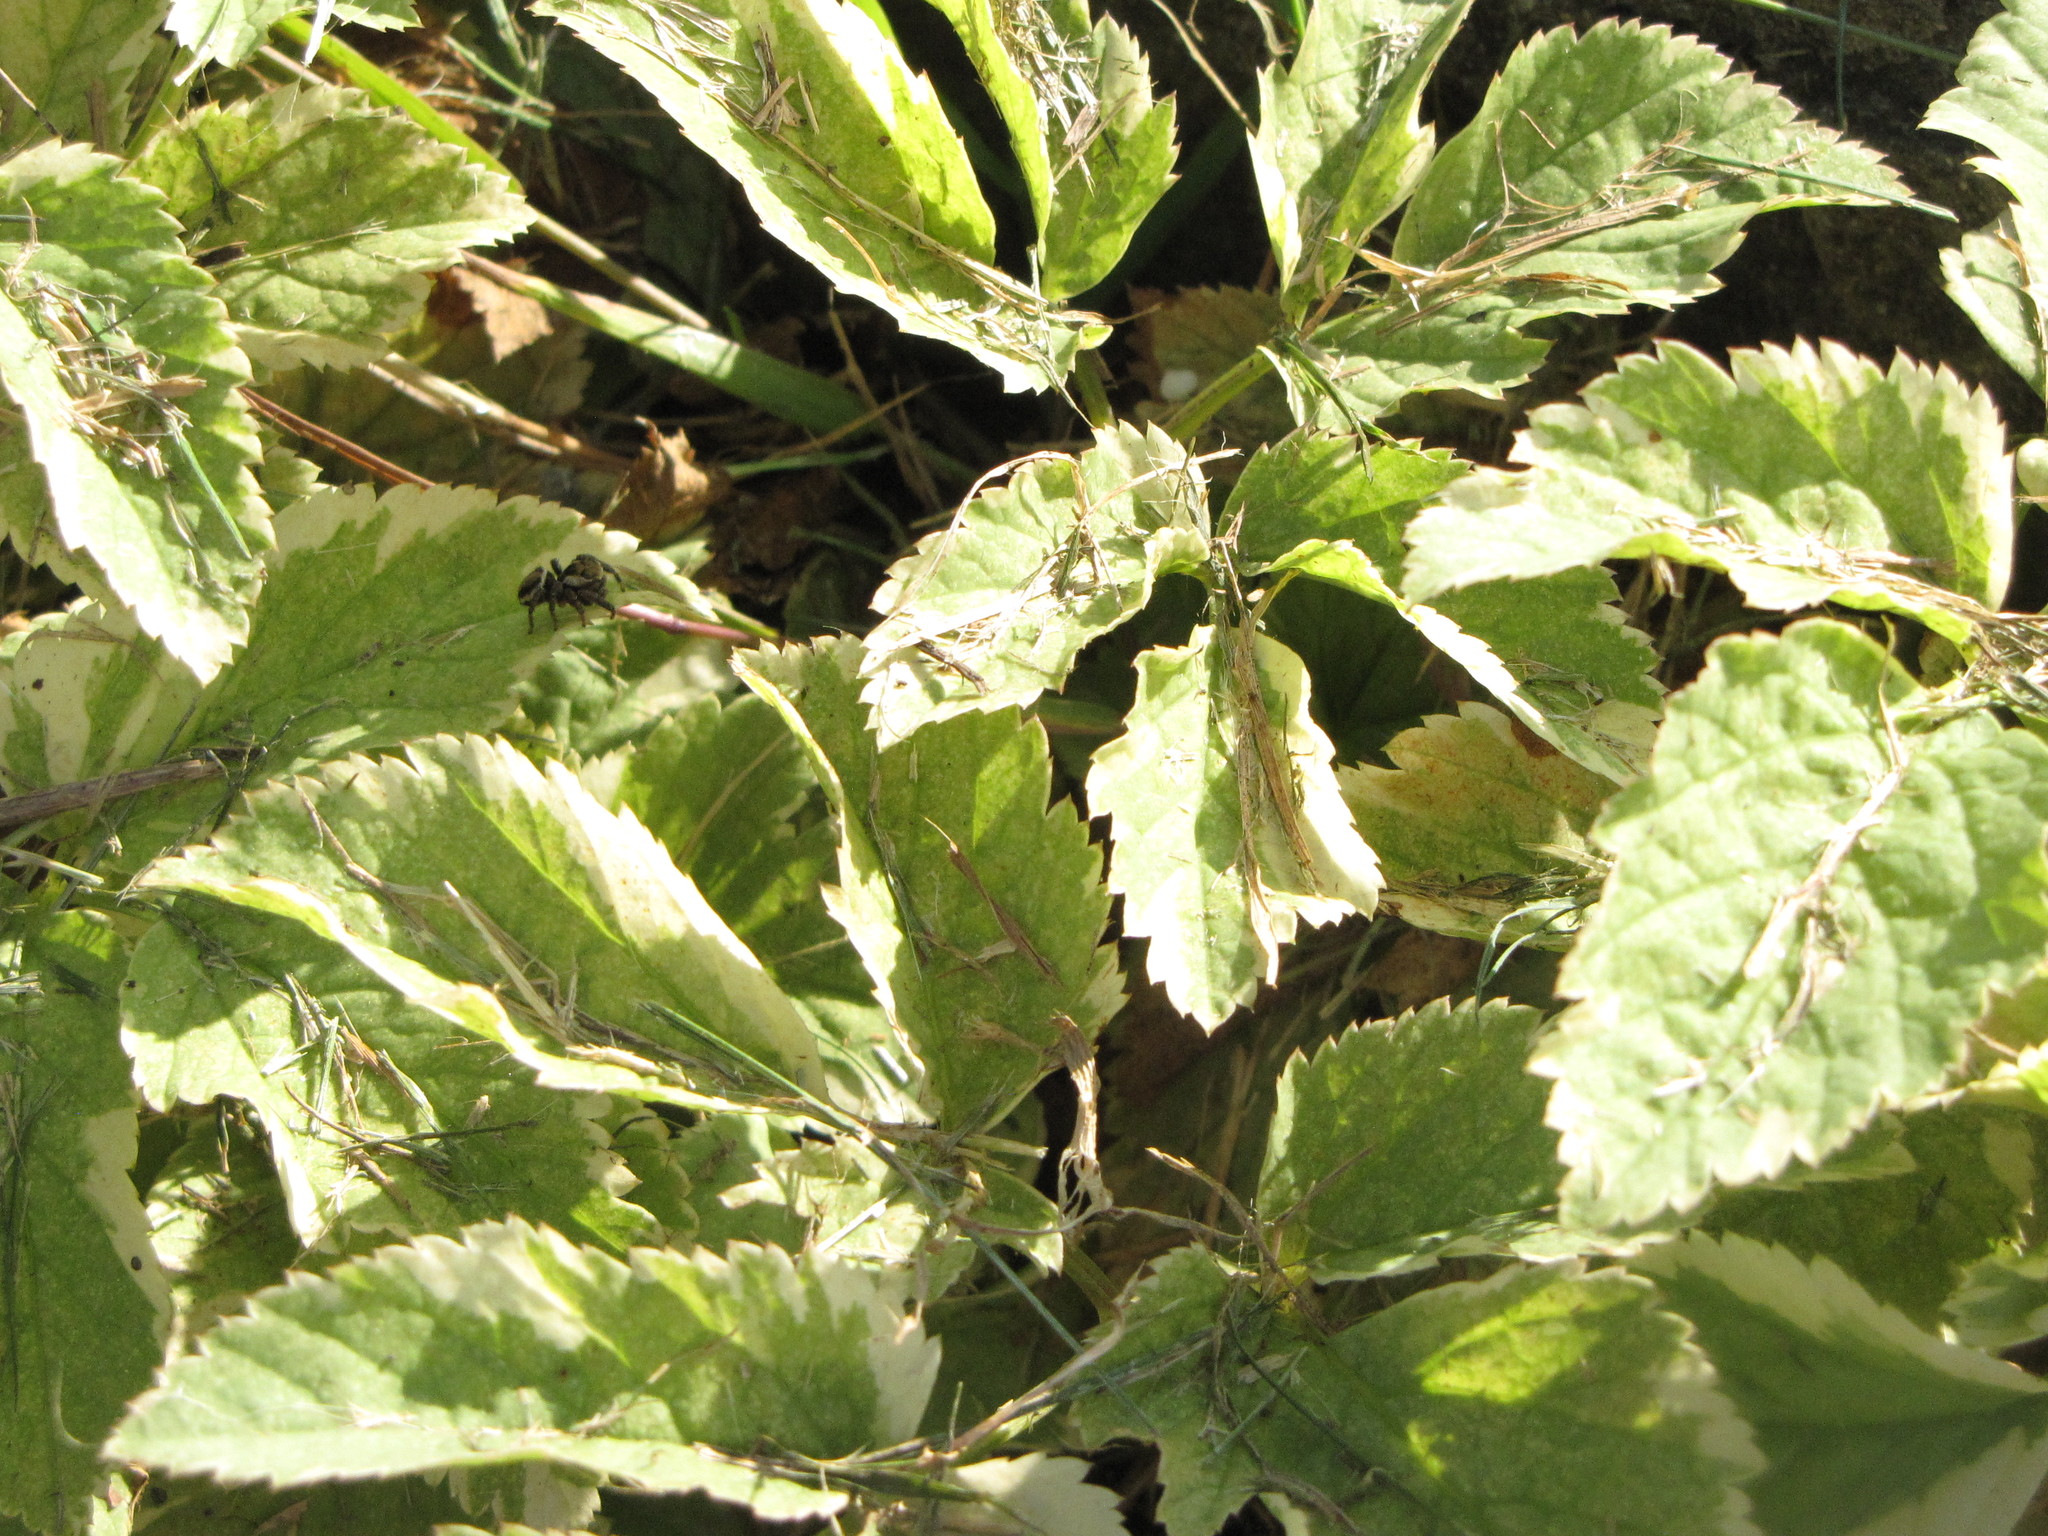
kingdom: Animalia
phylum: Arthropoda
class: Arachnida
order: Araneae
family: Salticidae
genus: Evarcha
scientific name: Evarcha proszynskii
